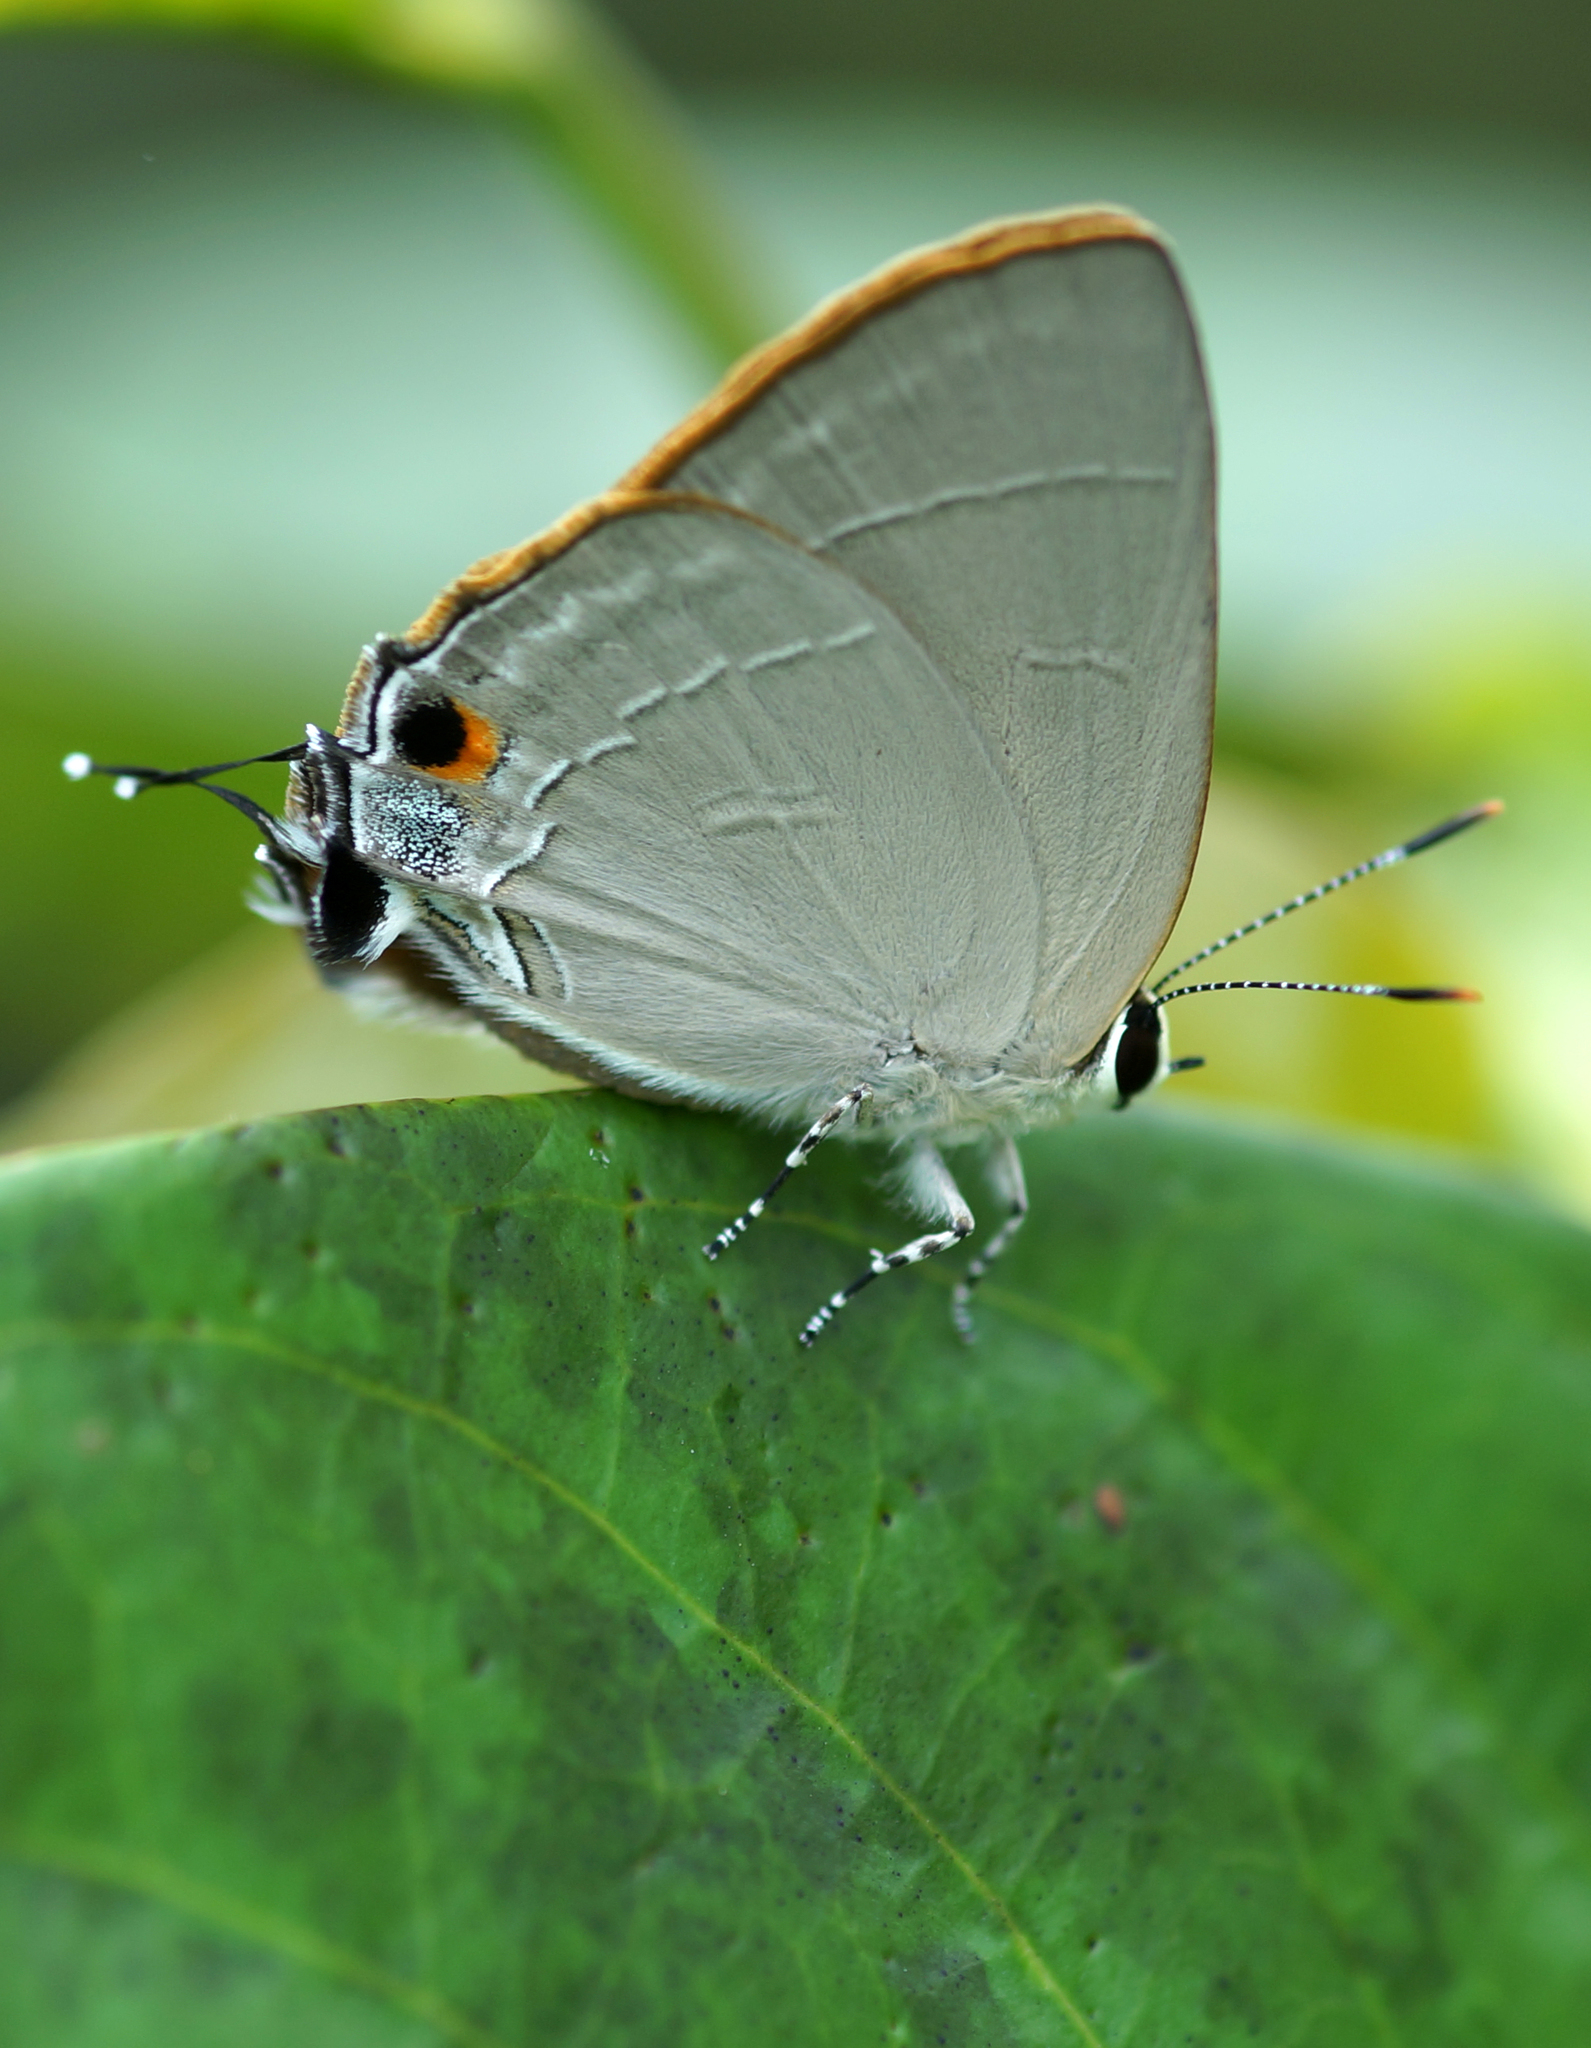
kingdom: Animalia
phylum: Arthropoda
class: Insecta
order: Lepidoptera
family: Lycaenidae
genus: Rapala
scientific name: Rapala iarbas
